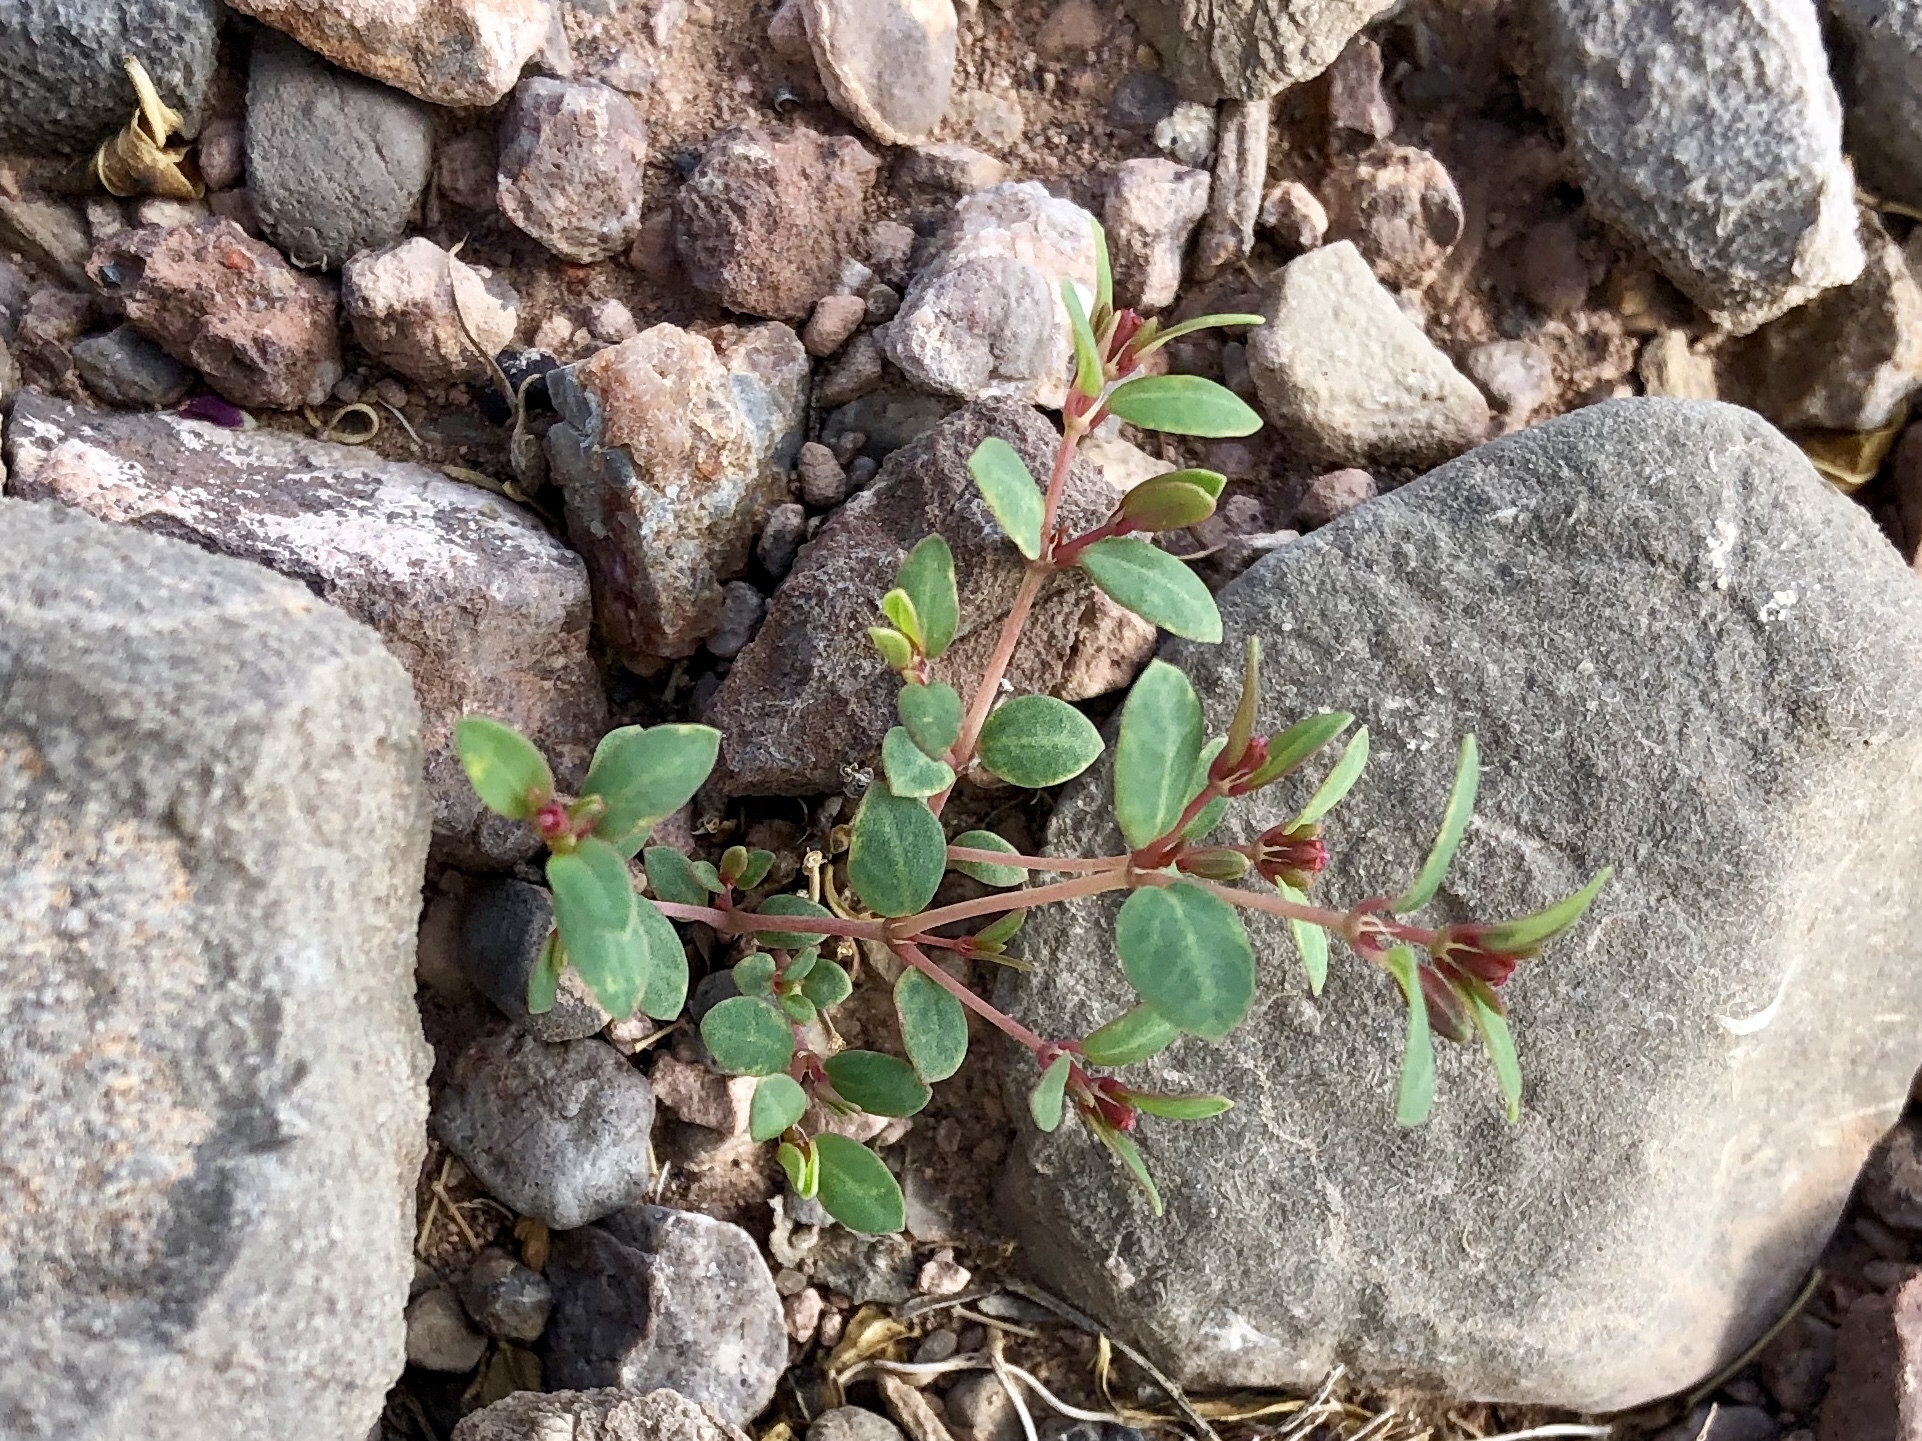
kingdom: Plantae
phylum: Tracheophyta
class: Magnoliopsida
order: Malpighiales
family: Euphorbiaceae
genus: Euphorbia
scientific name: Euphorbia chaetocalyx
